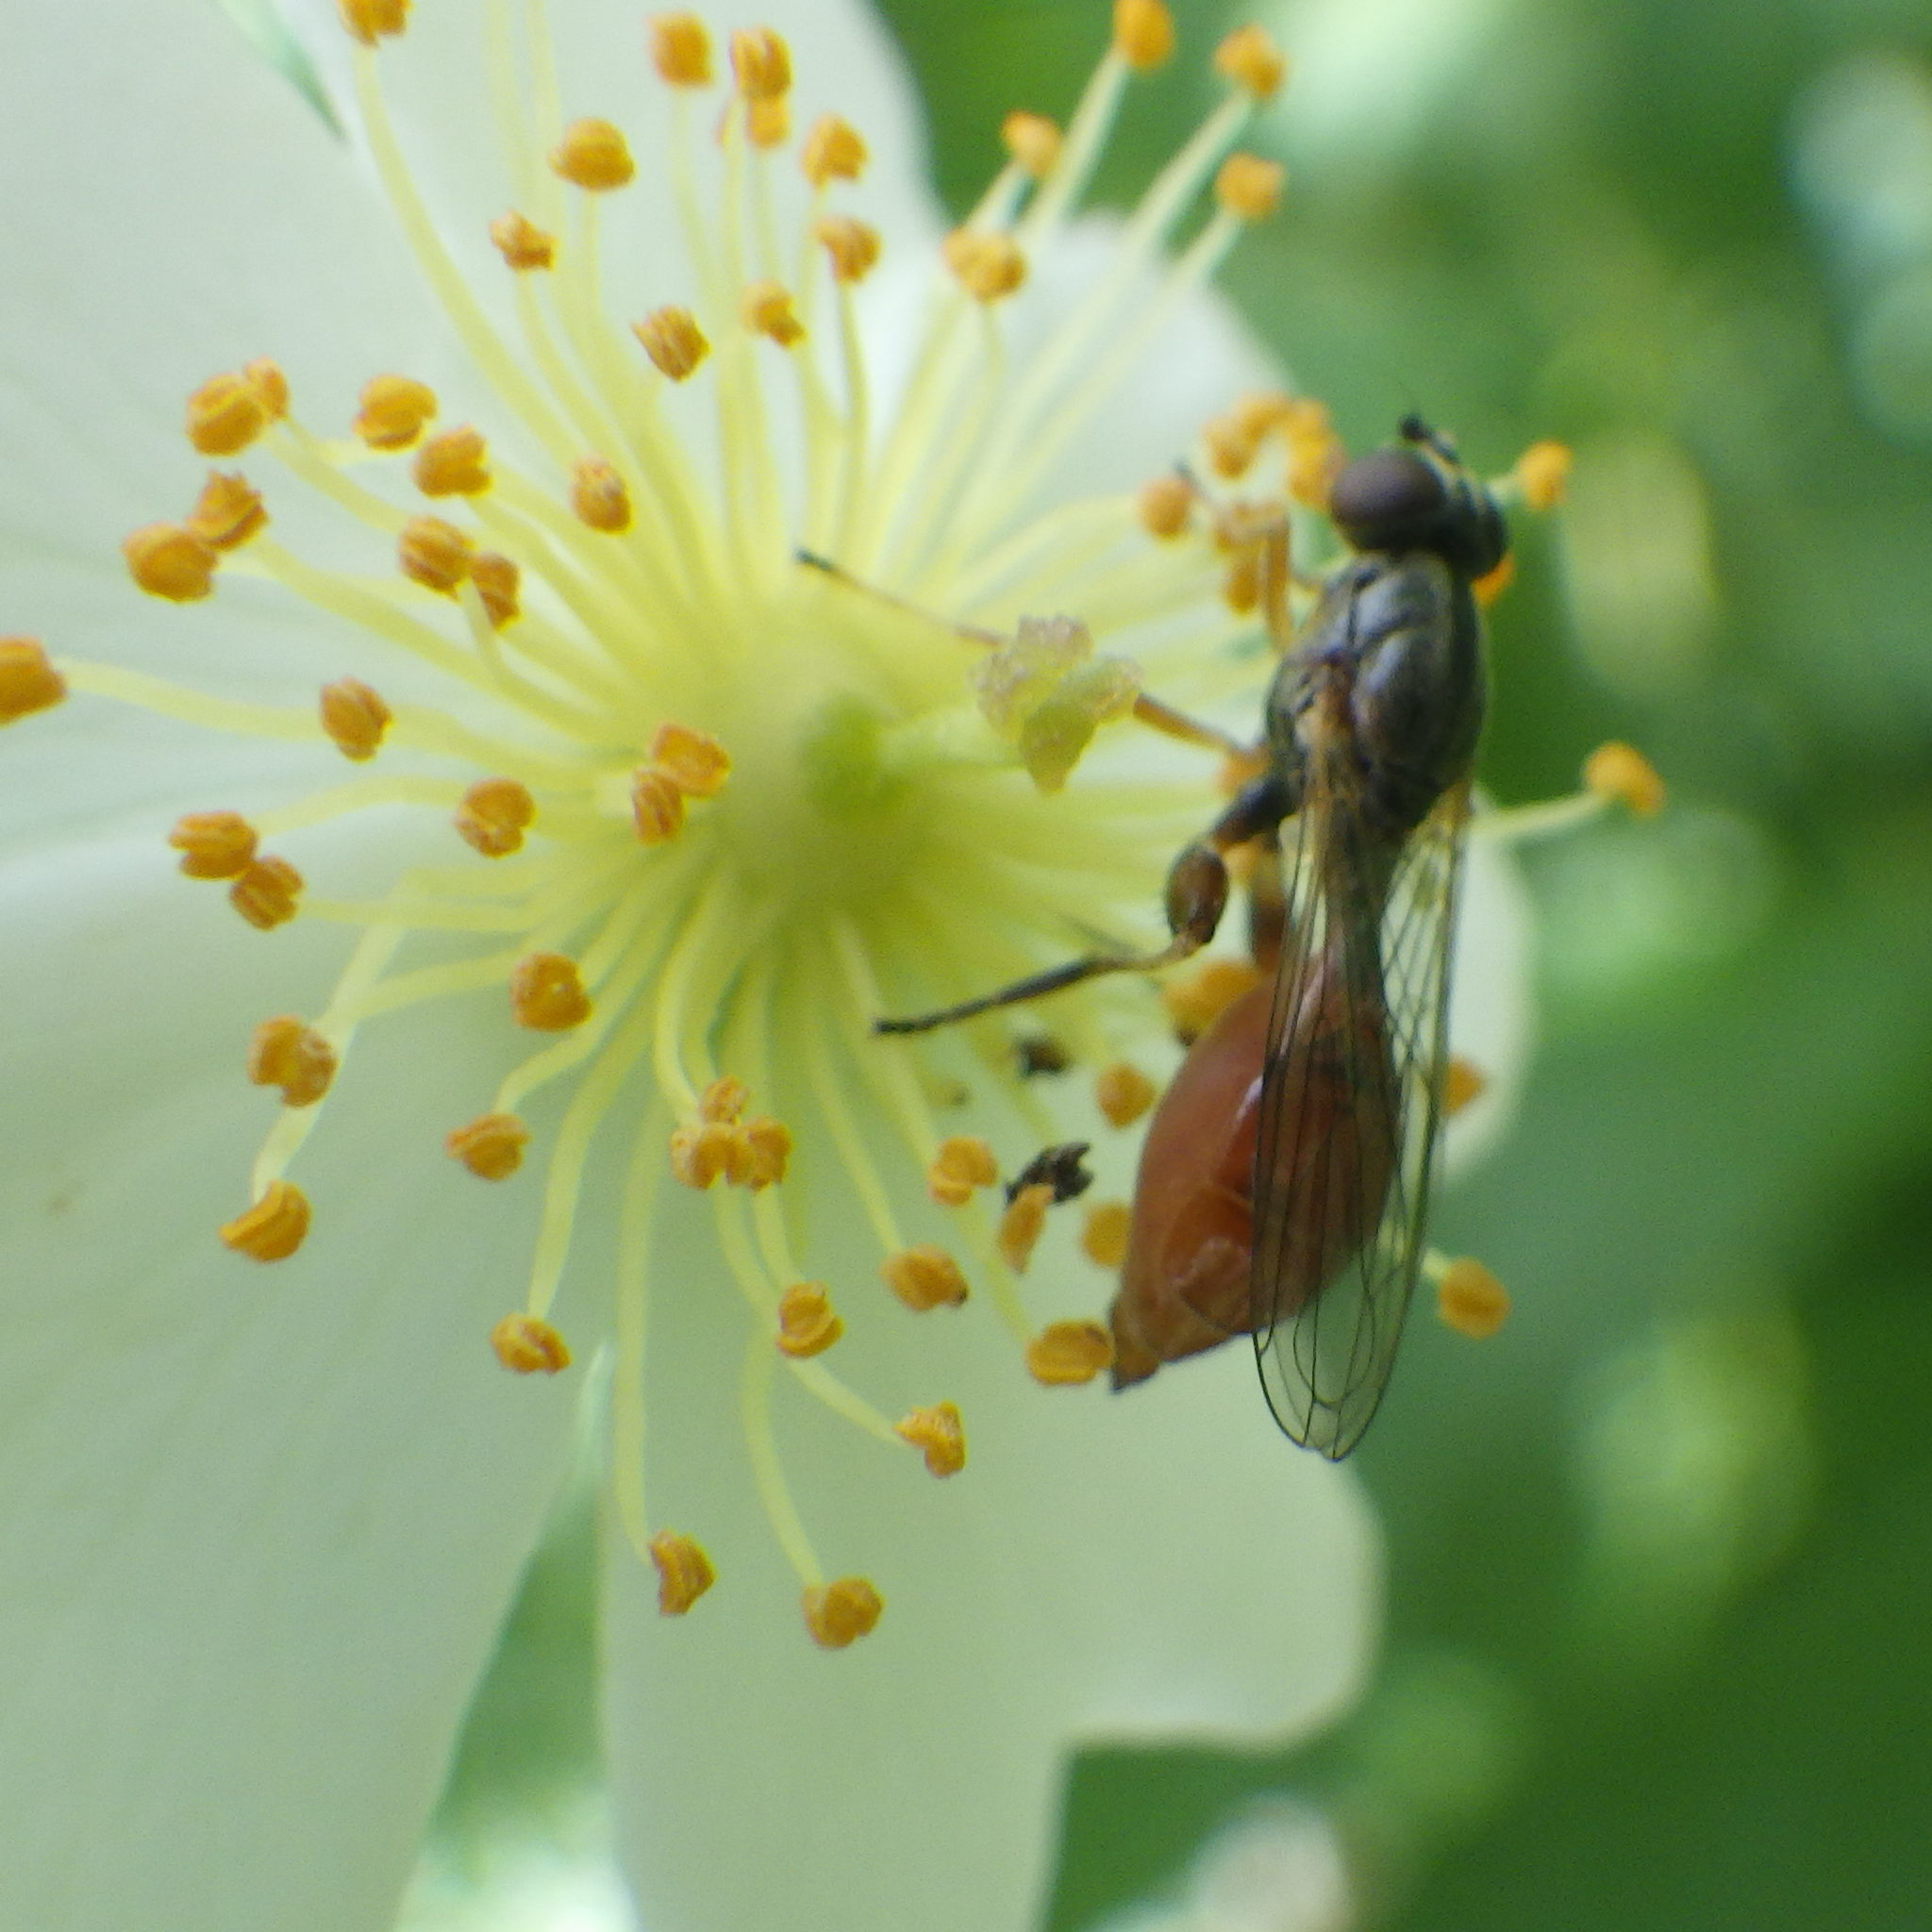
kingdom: Animalia
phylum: Arthropoda
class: Insecta
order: Diptera
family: Syrphidae
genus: Sphegina
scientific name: Sphegina rufiventris
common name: Black-horned pufftail
